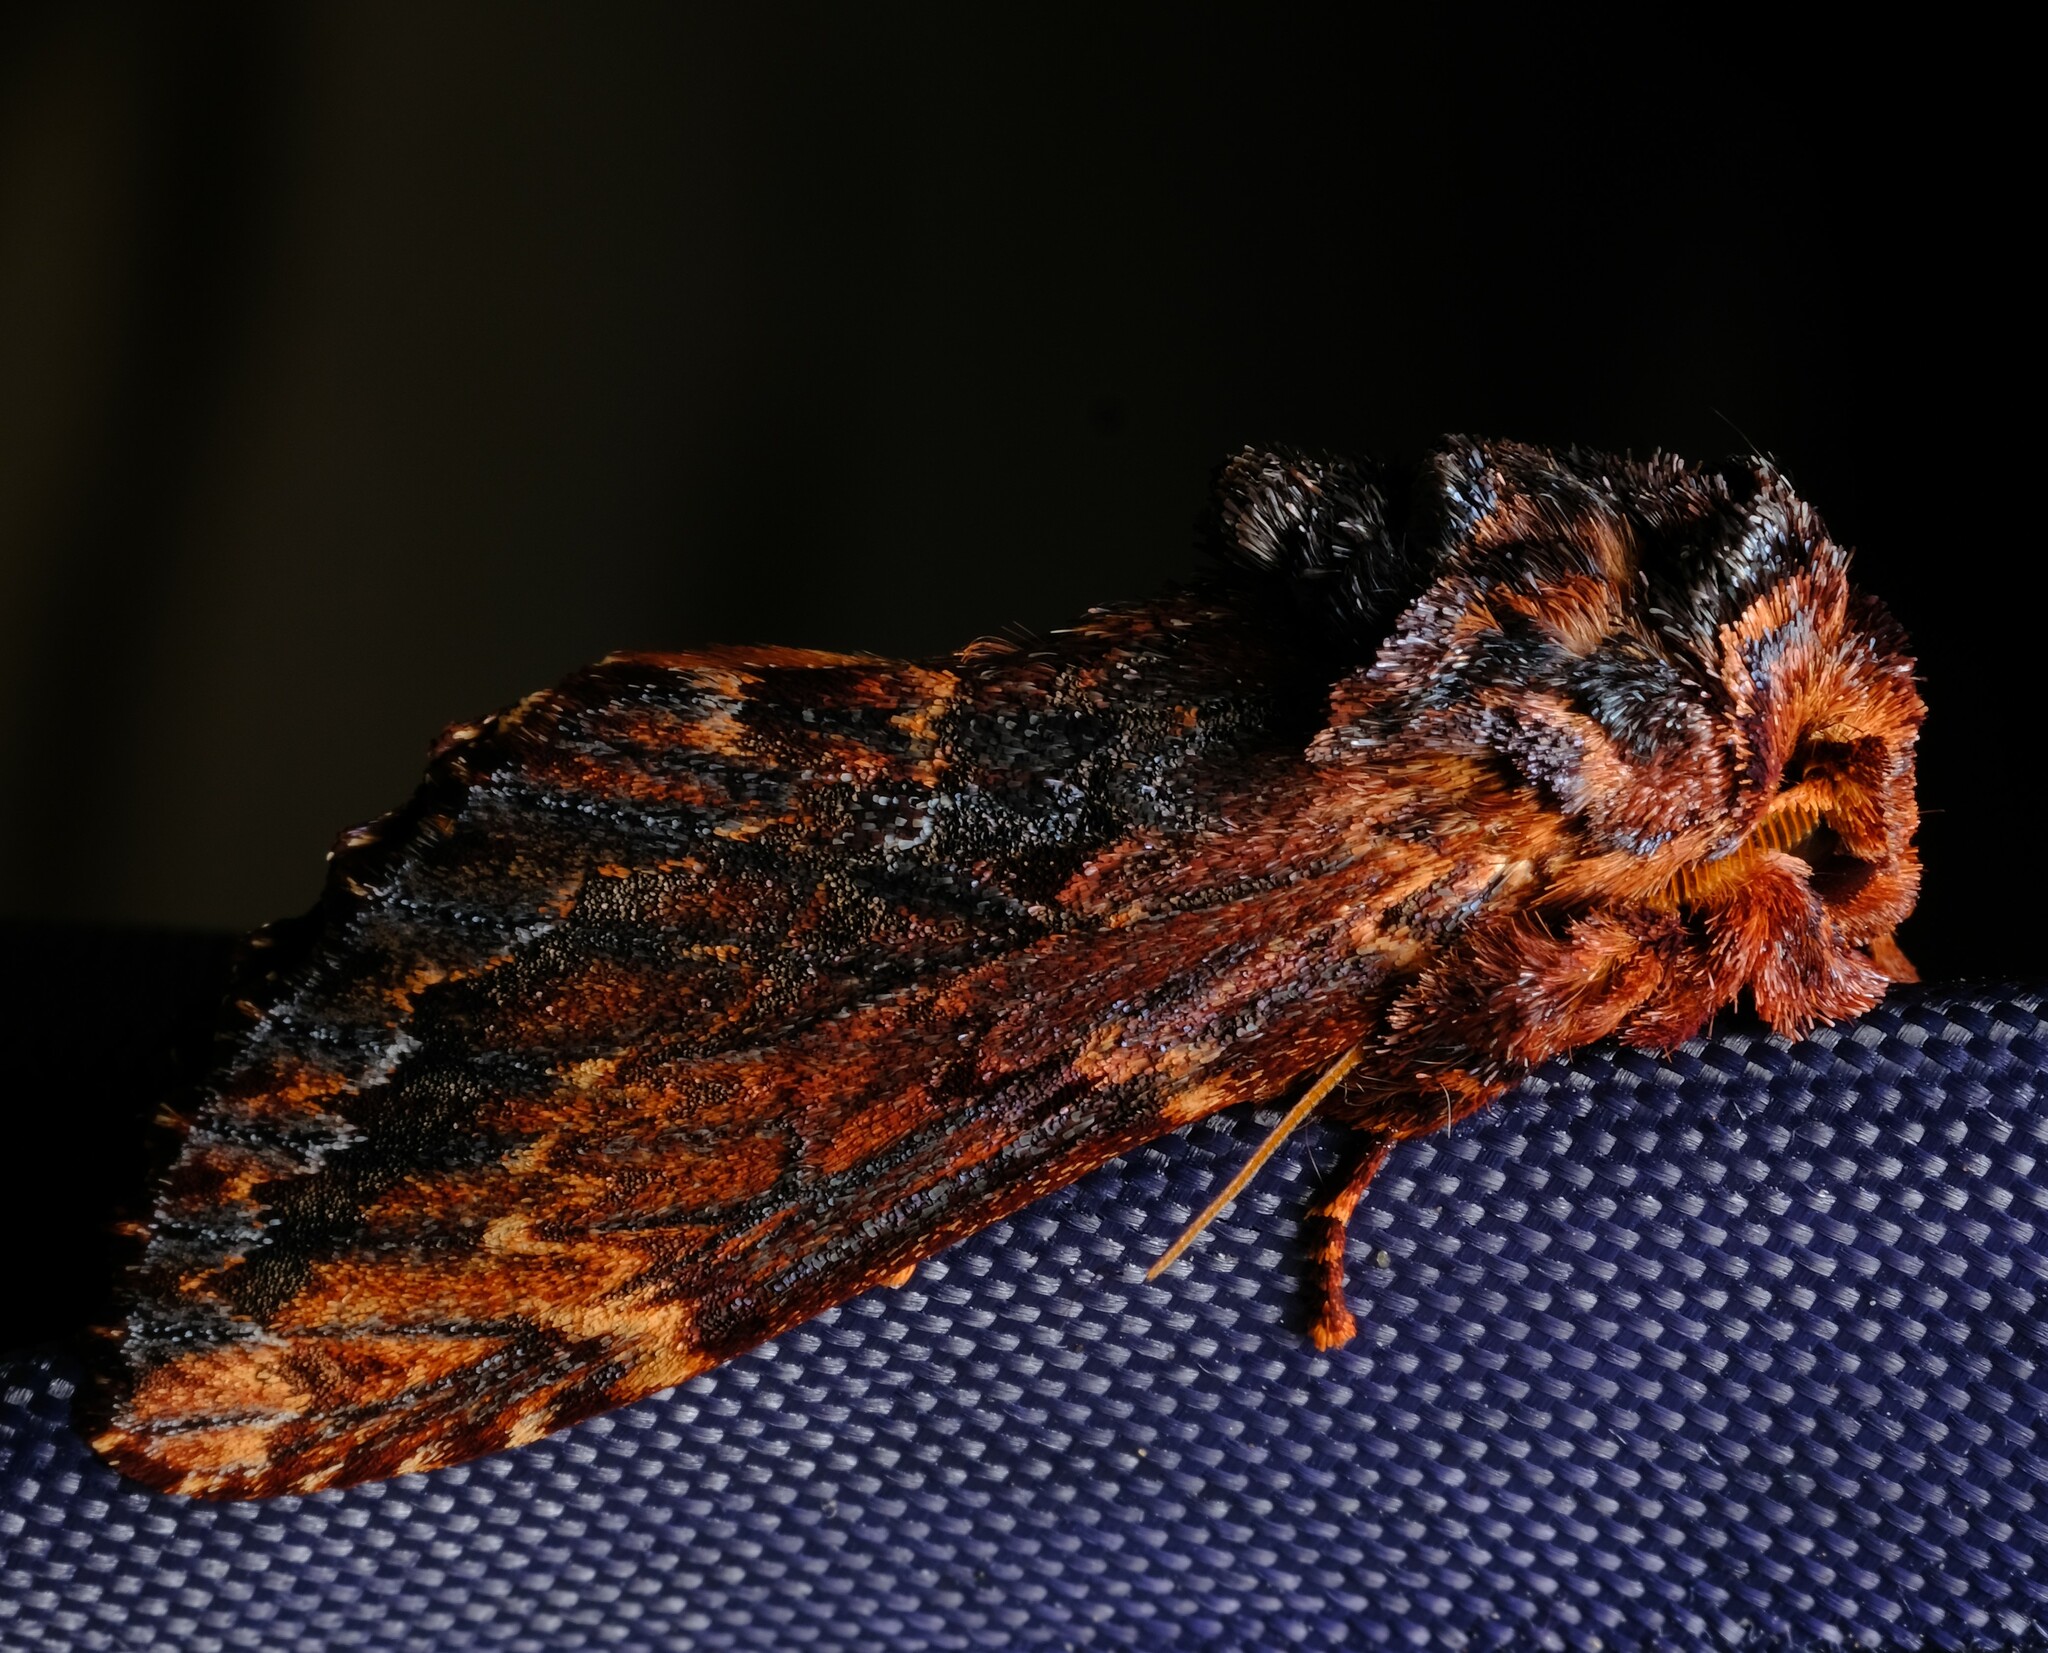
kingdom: Animalia
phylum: Arthropoda
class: Insecta
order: Lepidoptera
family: Notodontidae
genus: Sorama
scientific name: Sorama bicolor
